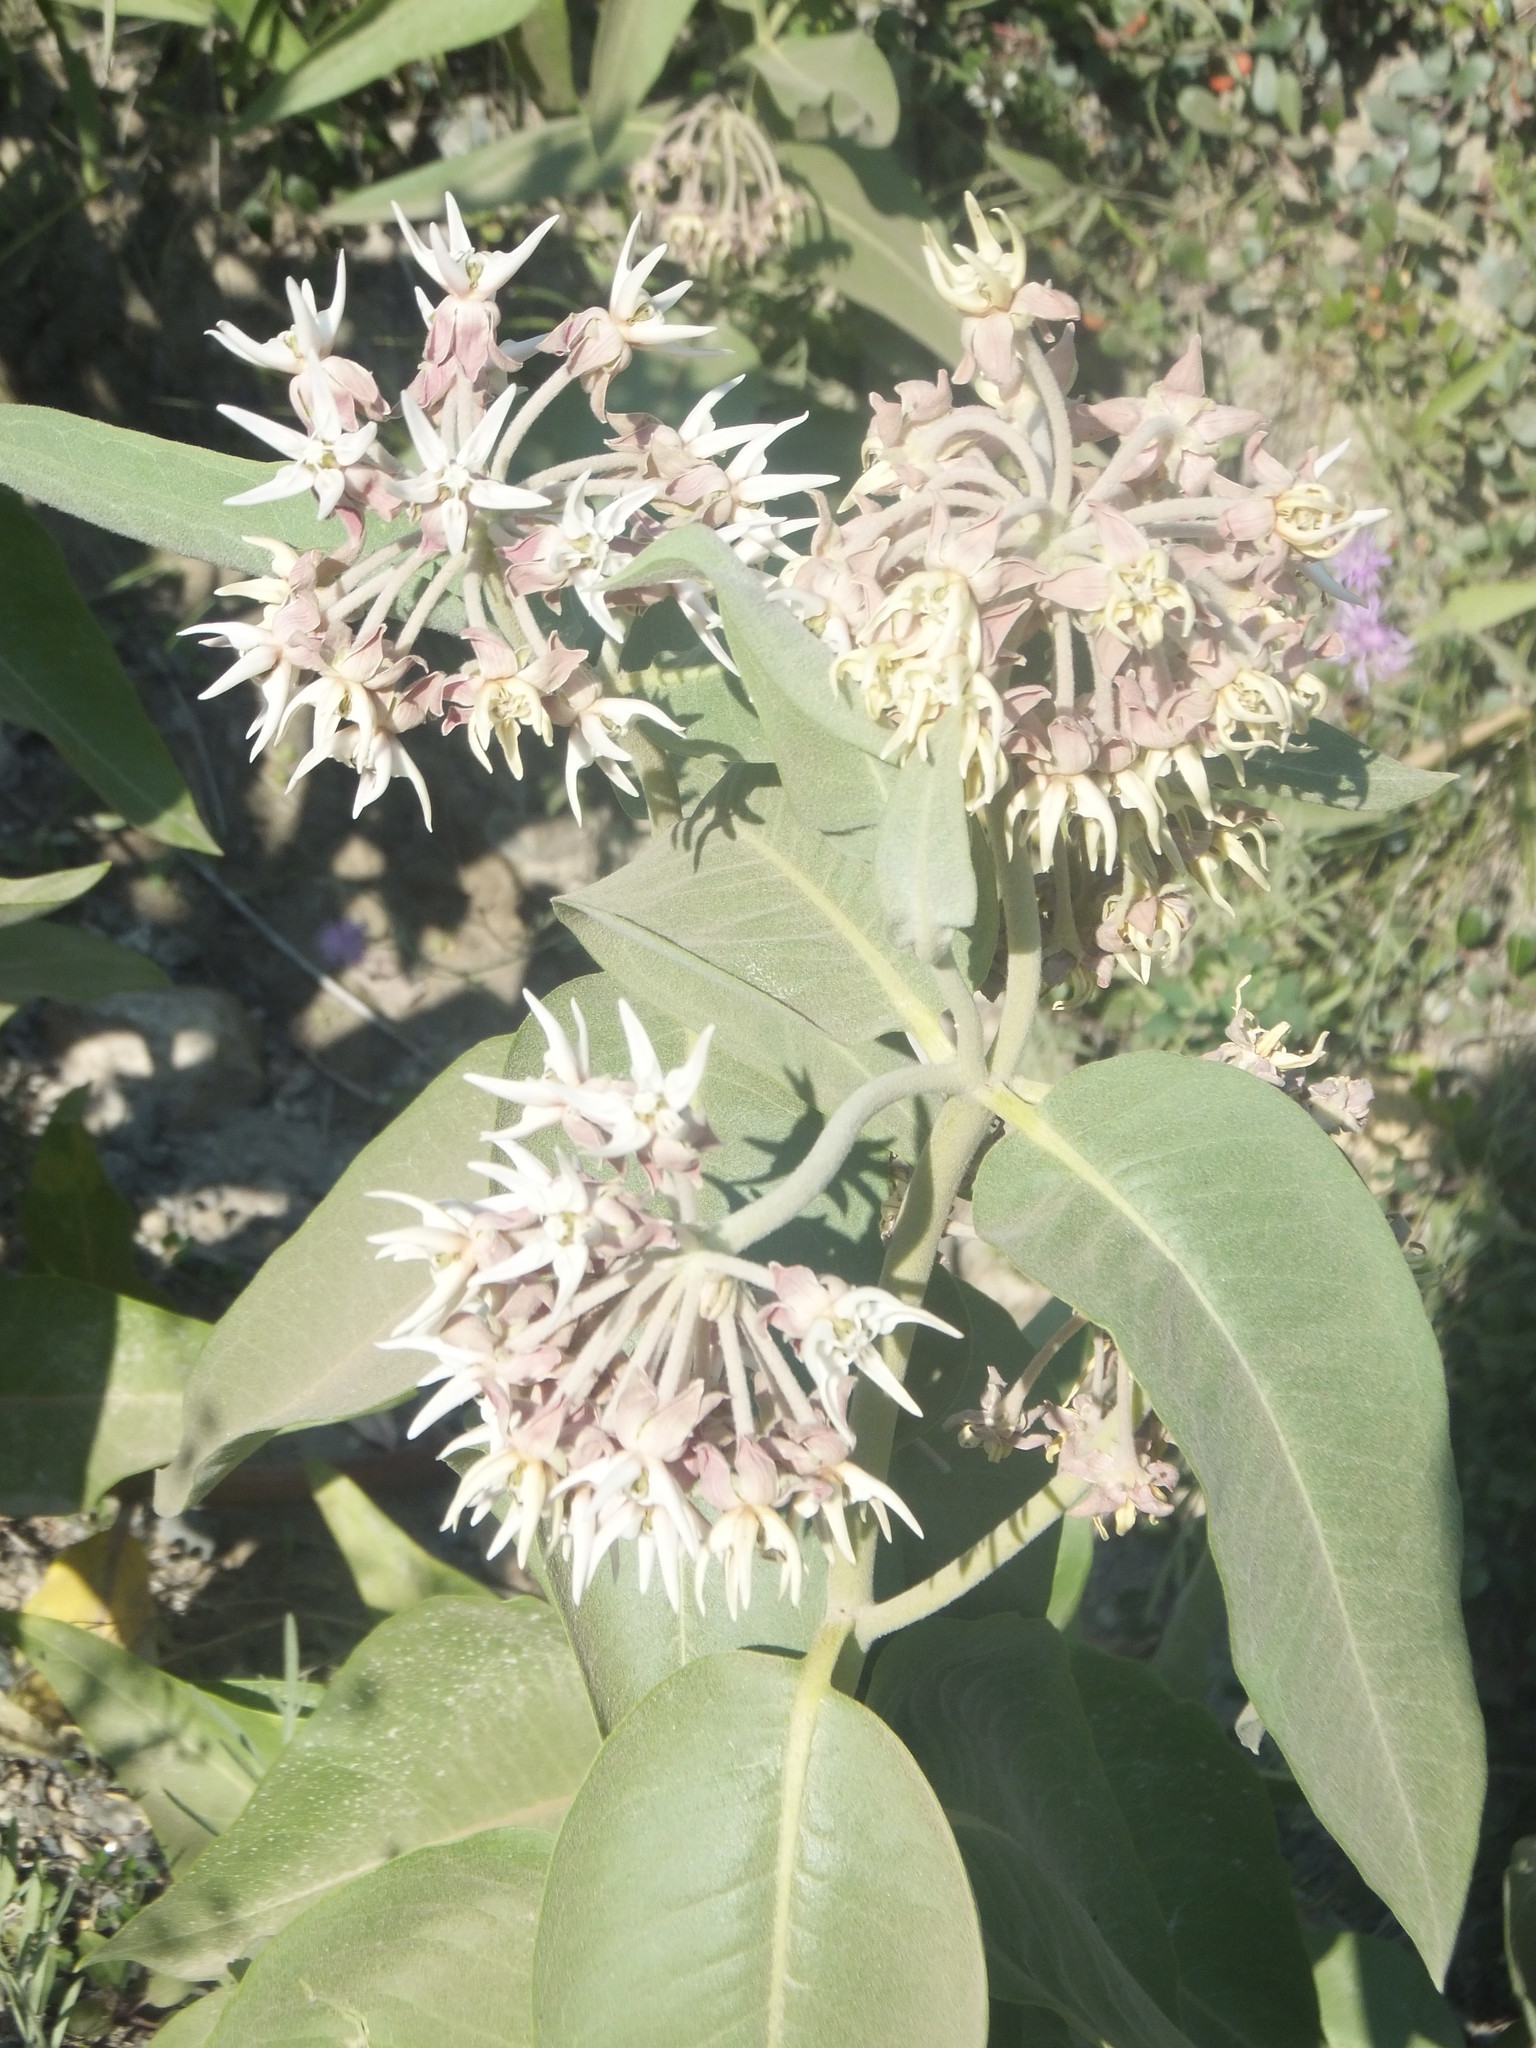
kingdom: Plantae
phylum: Tracheophyta
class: Magnoliopsida
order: Gentianales
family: Apocynaceae
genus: Asclepias
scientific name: Asclepias speciosa
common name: Showy milkweed
